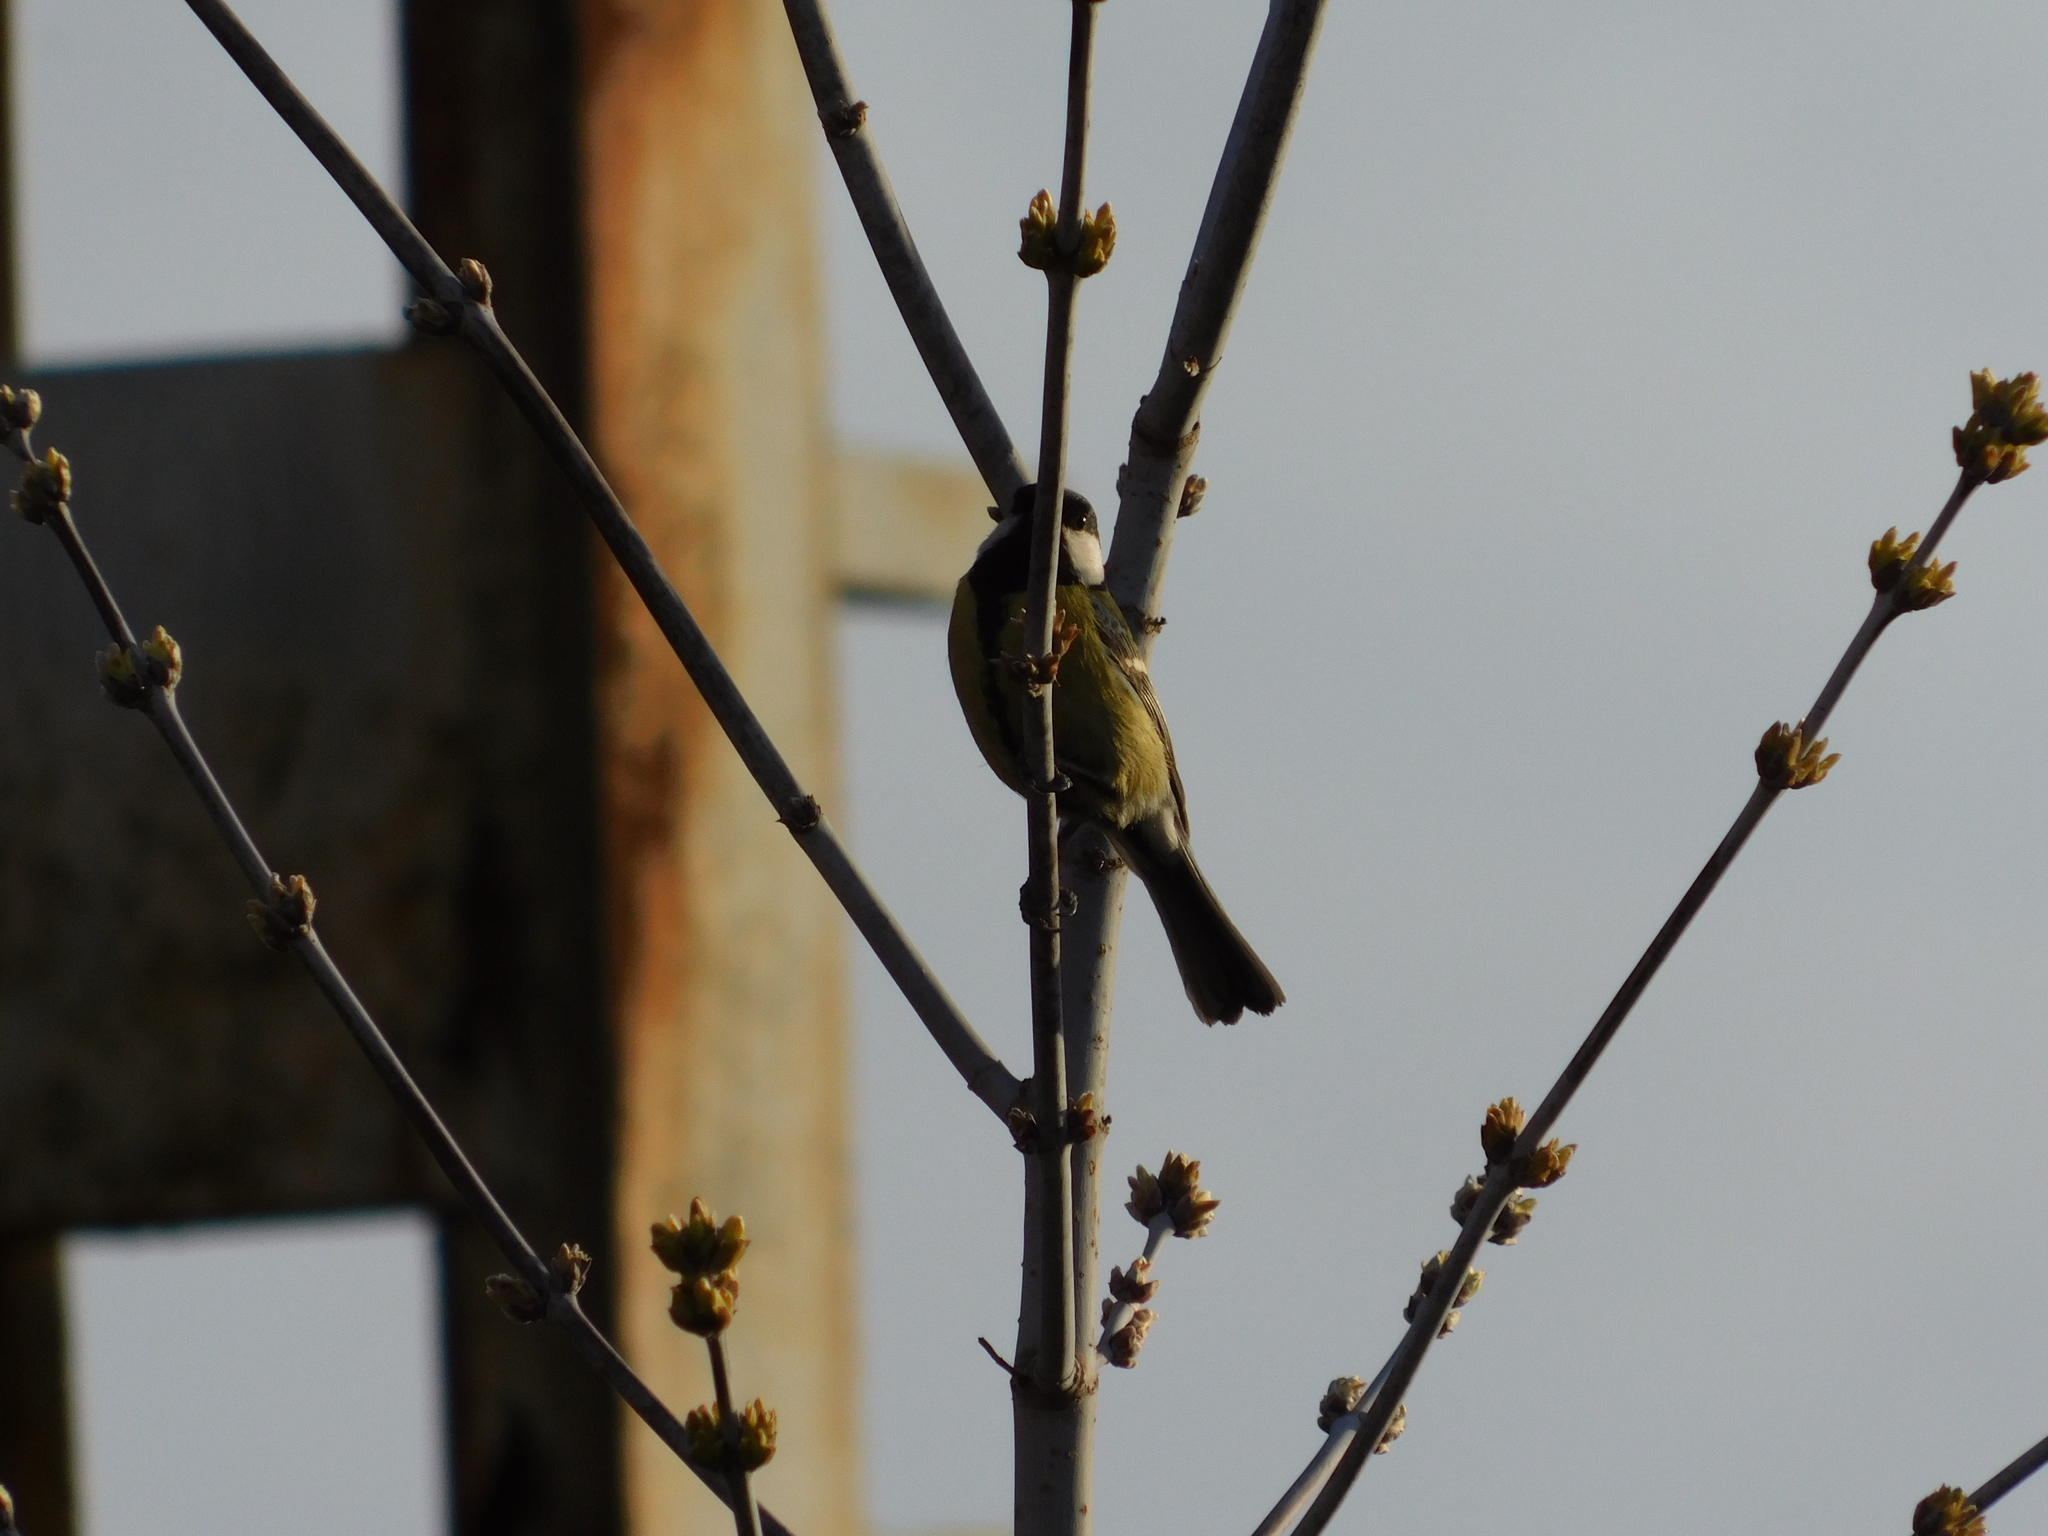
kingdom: Animalia
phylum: Chordata
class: Aves
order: Passeriformes
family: Paridae
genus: Parus
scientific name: Parus major
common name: Great tit
